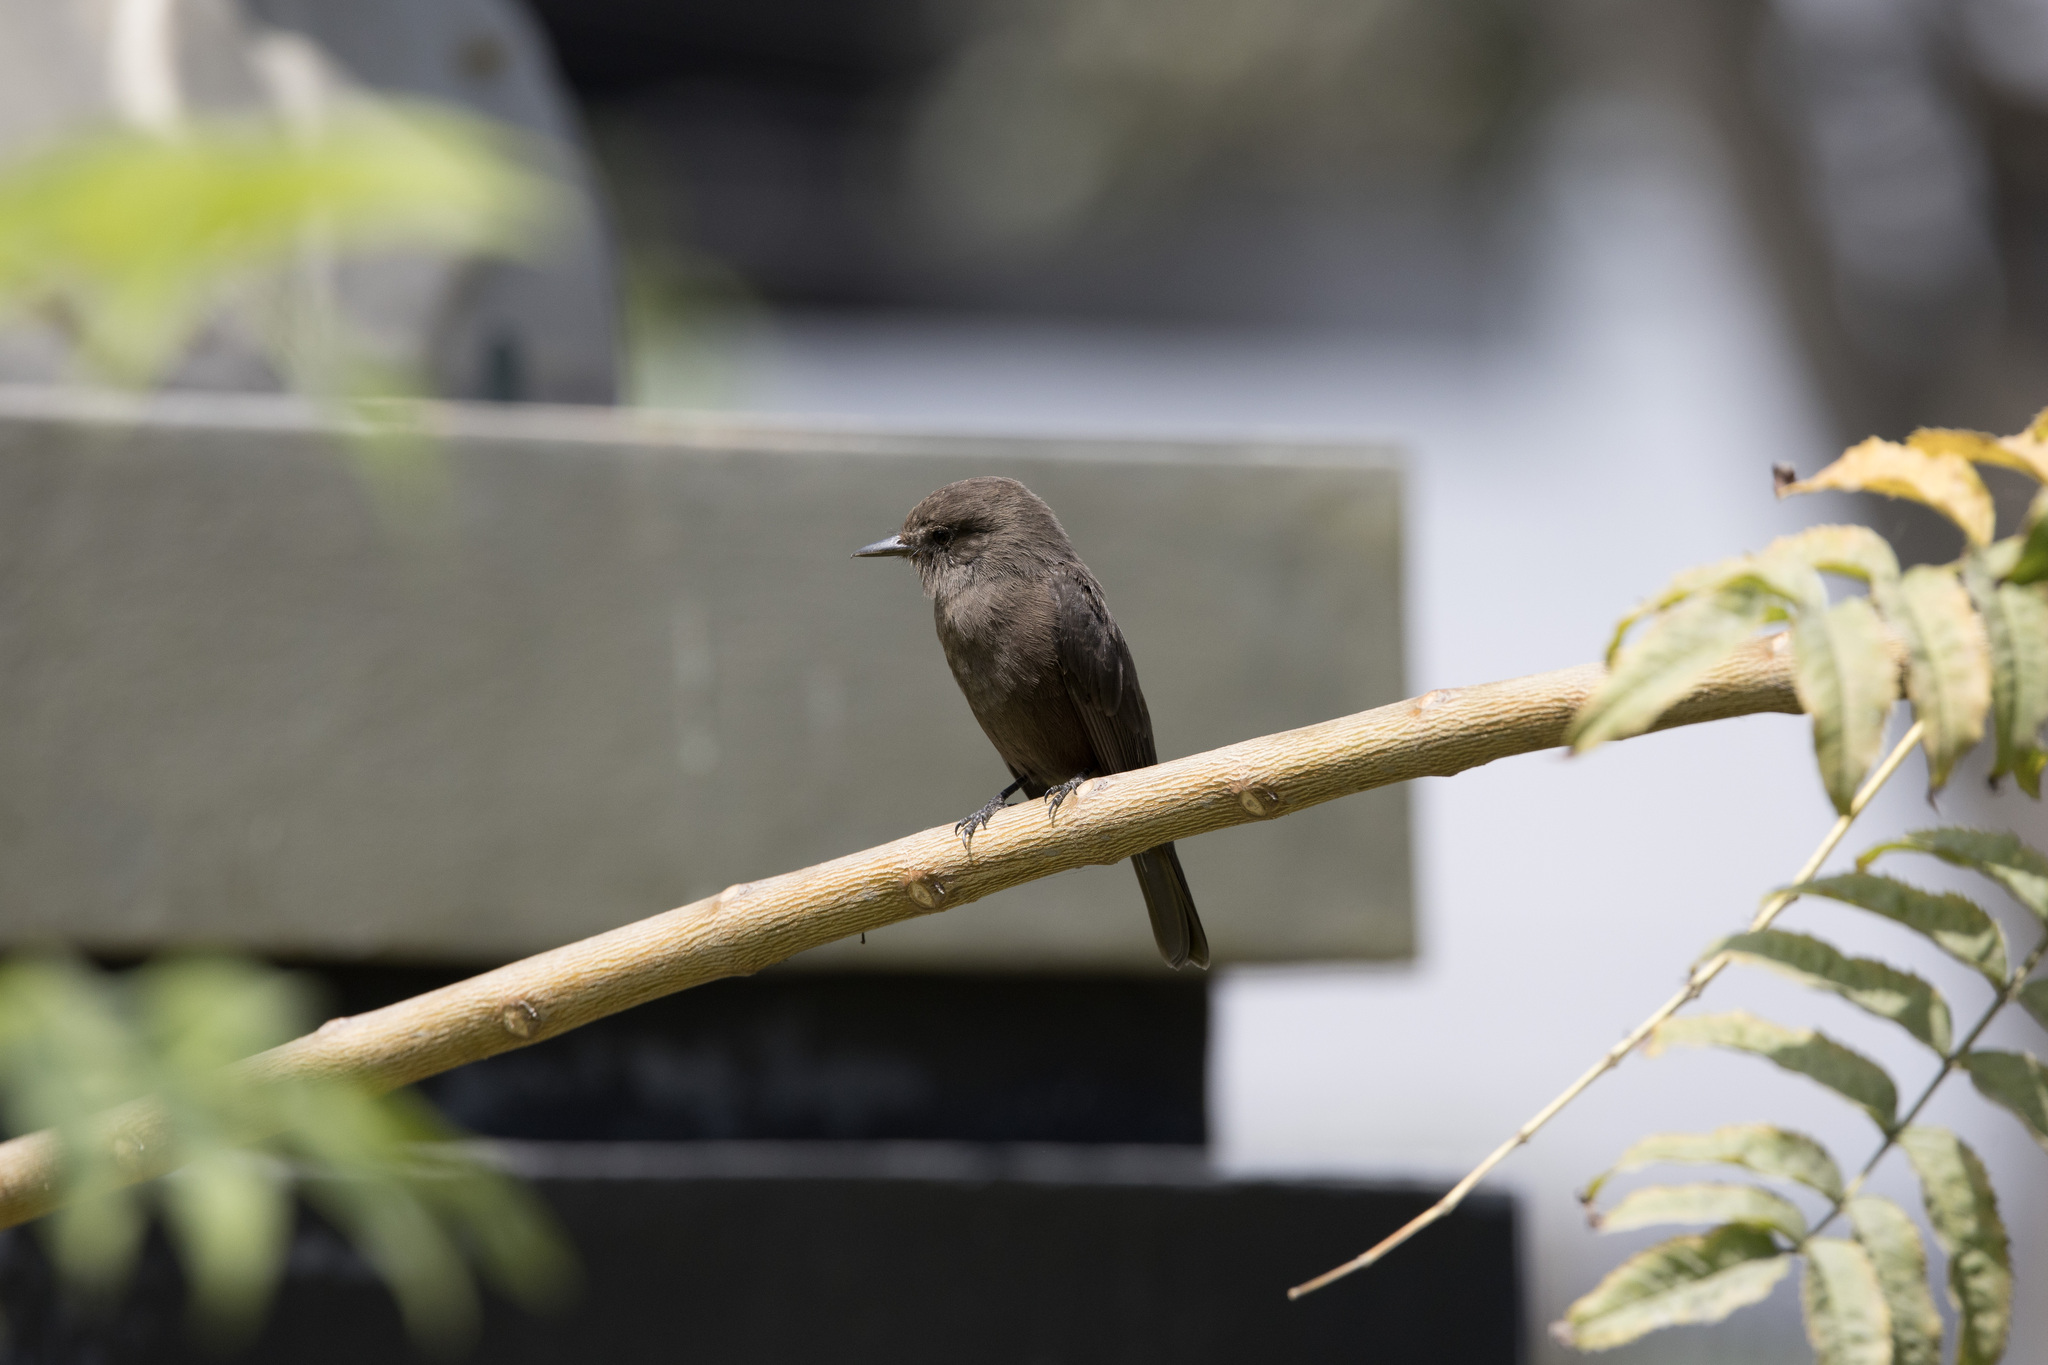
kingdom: Animalia
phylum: Chordata
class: Aves
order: Passeriformes
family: Tyrannidae
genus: Pyrocephalus
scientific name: Pyrocephalus rubinus
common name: Vermilion flycatcher
